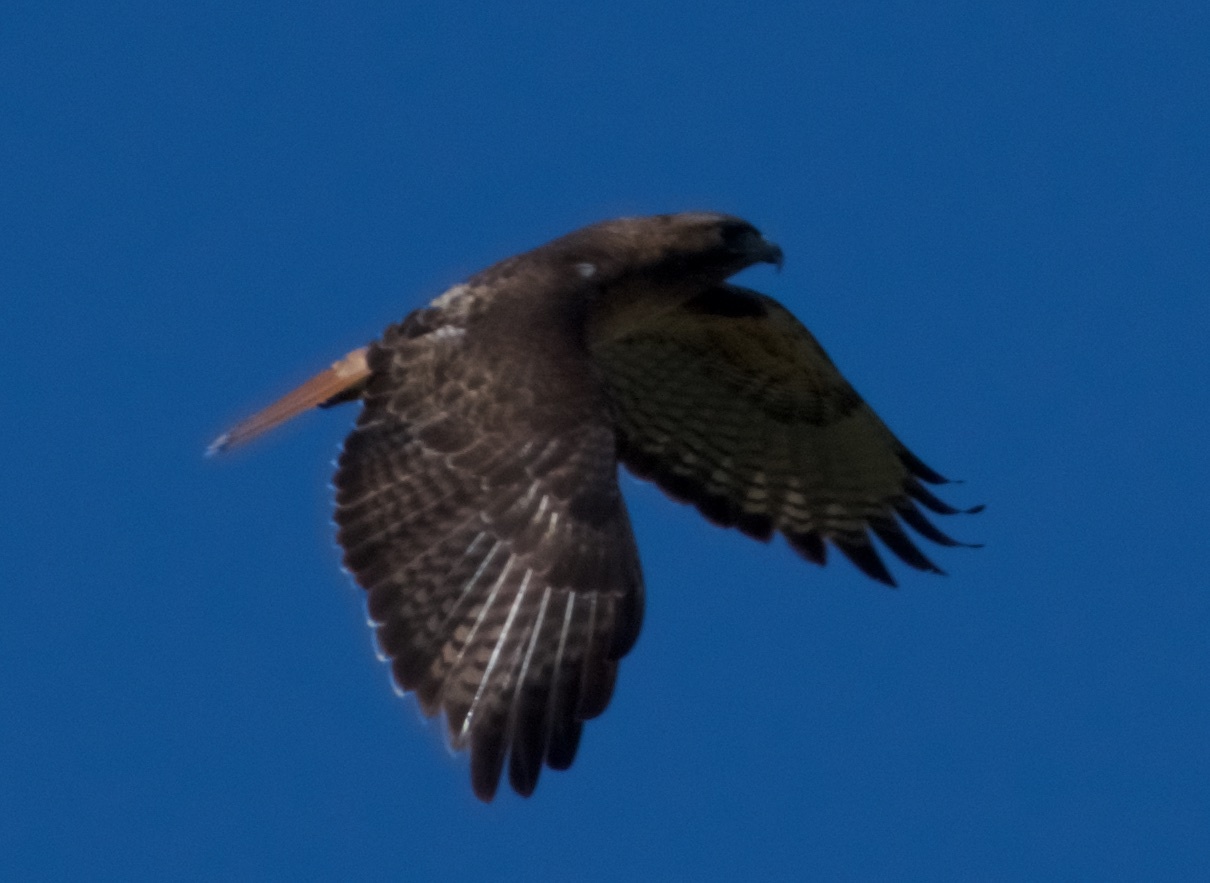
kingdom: Animalia
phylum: Chordata
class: Aves
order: Accipitriformes
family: Accipitridae
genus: Buteo
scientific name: Buteo jamaicensis
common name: Red-tailed hawk
